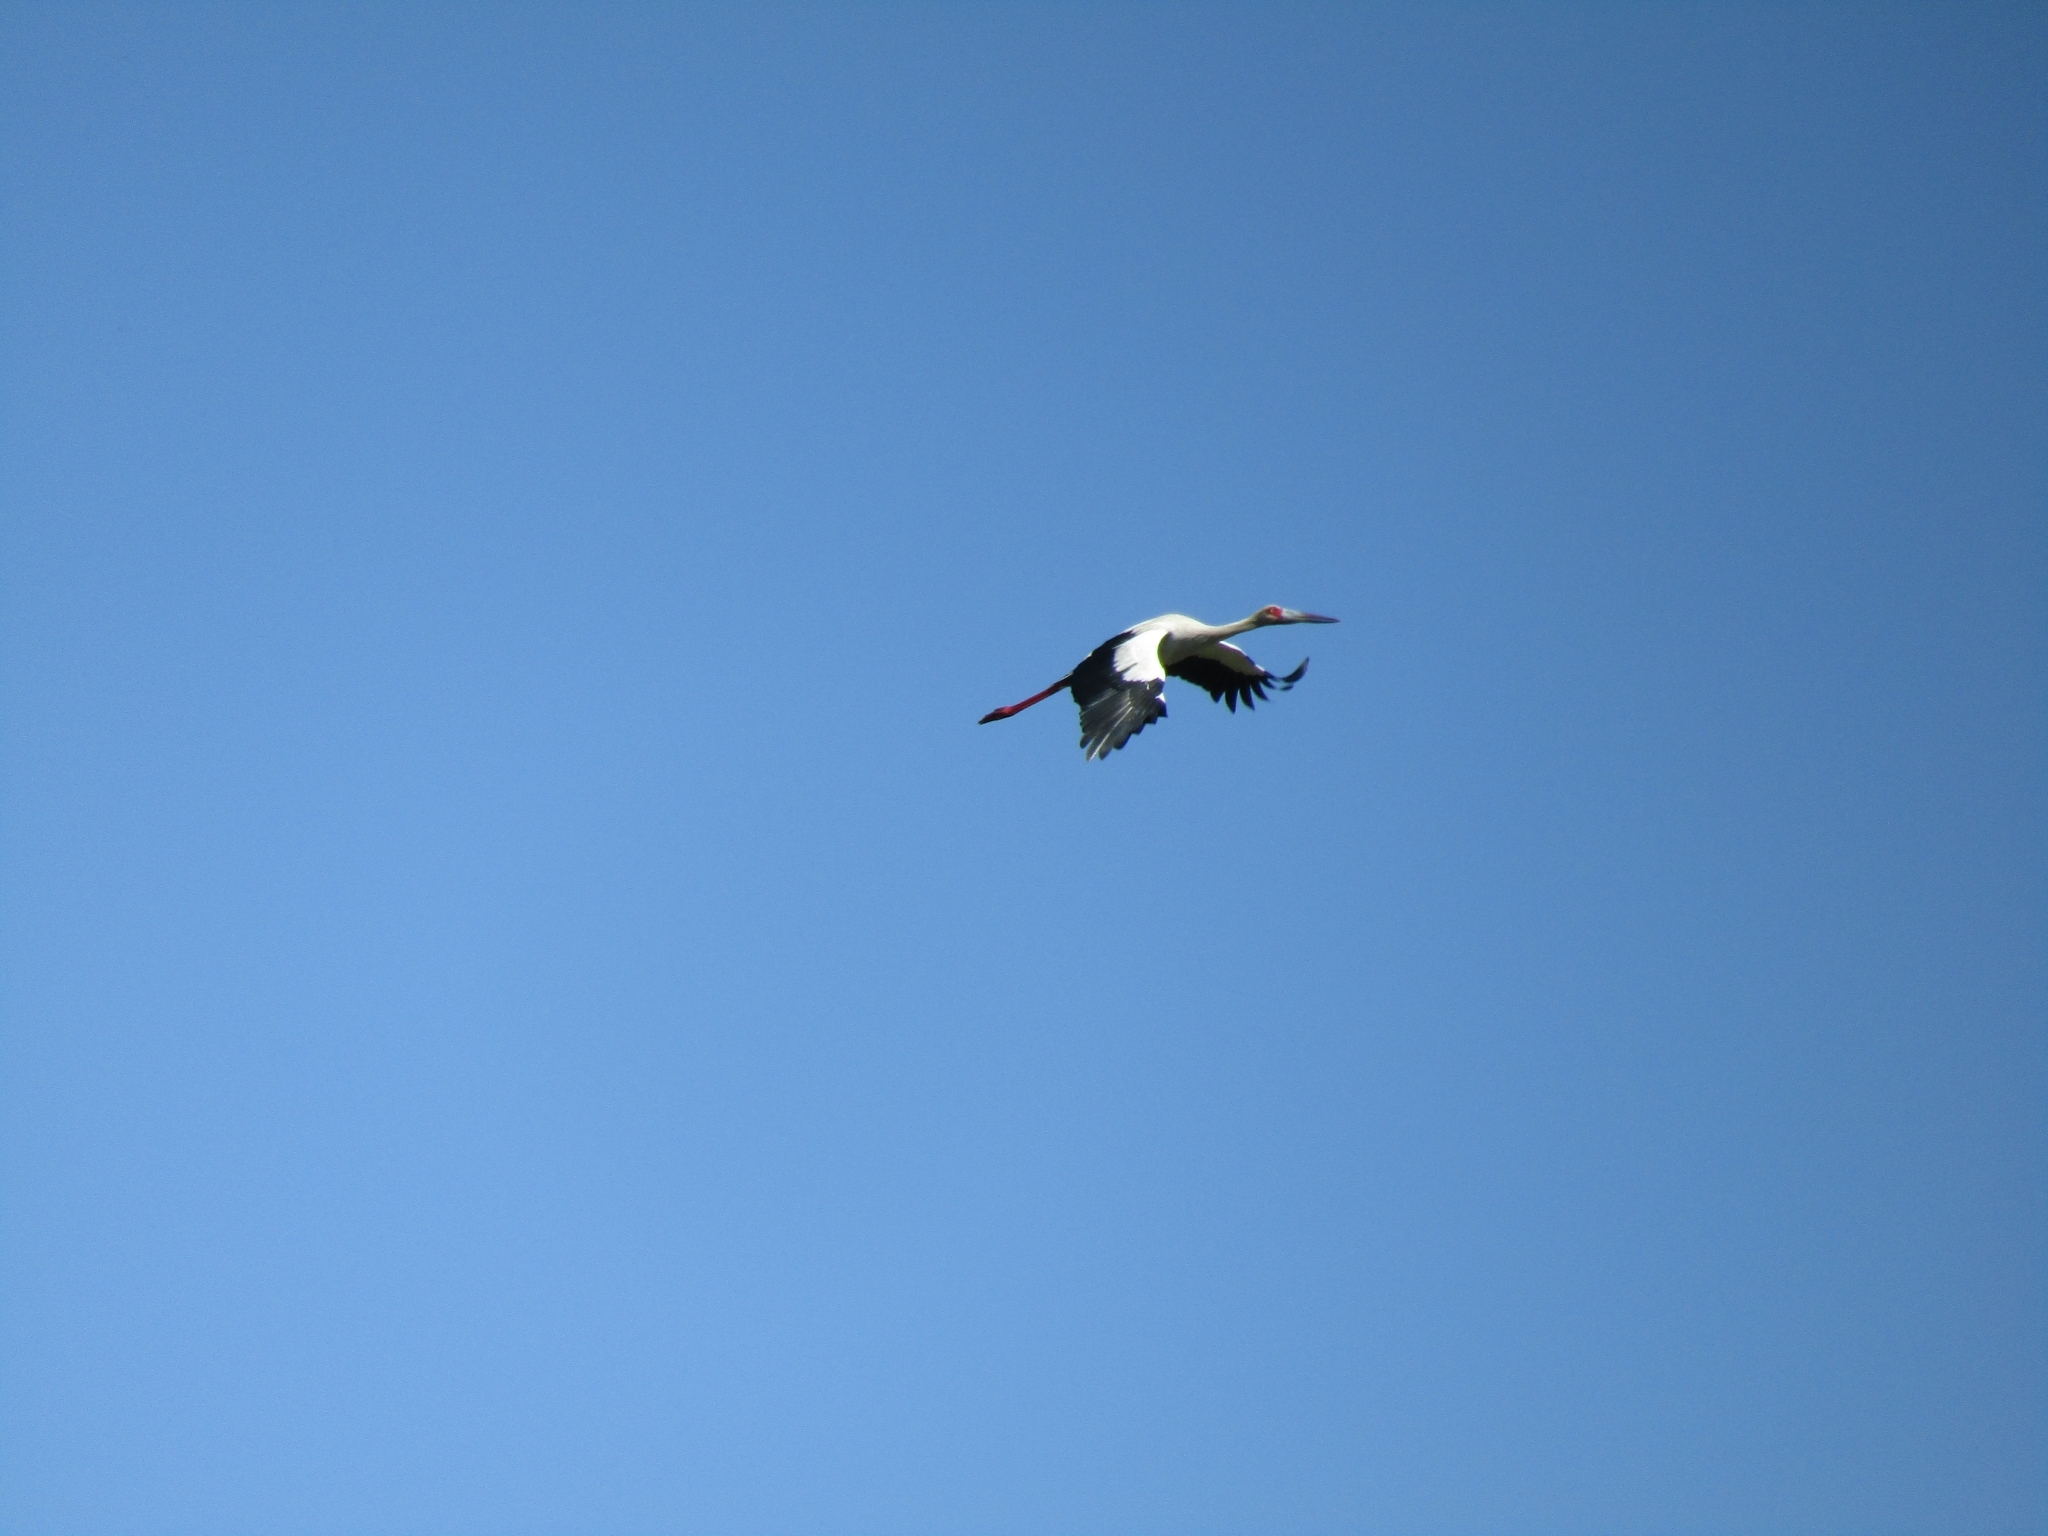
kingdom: Animalia
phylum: Chordata
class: Aves
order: Ciconiiformes
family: Ciconiidae
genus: Ciconia
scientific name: Ciconia maguari
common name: Maguari stork
